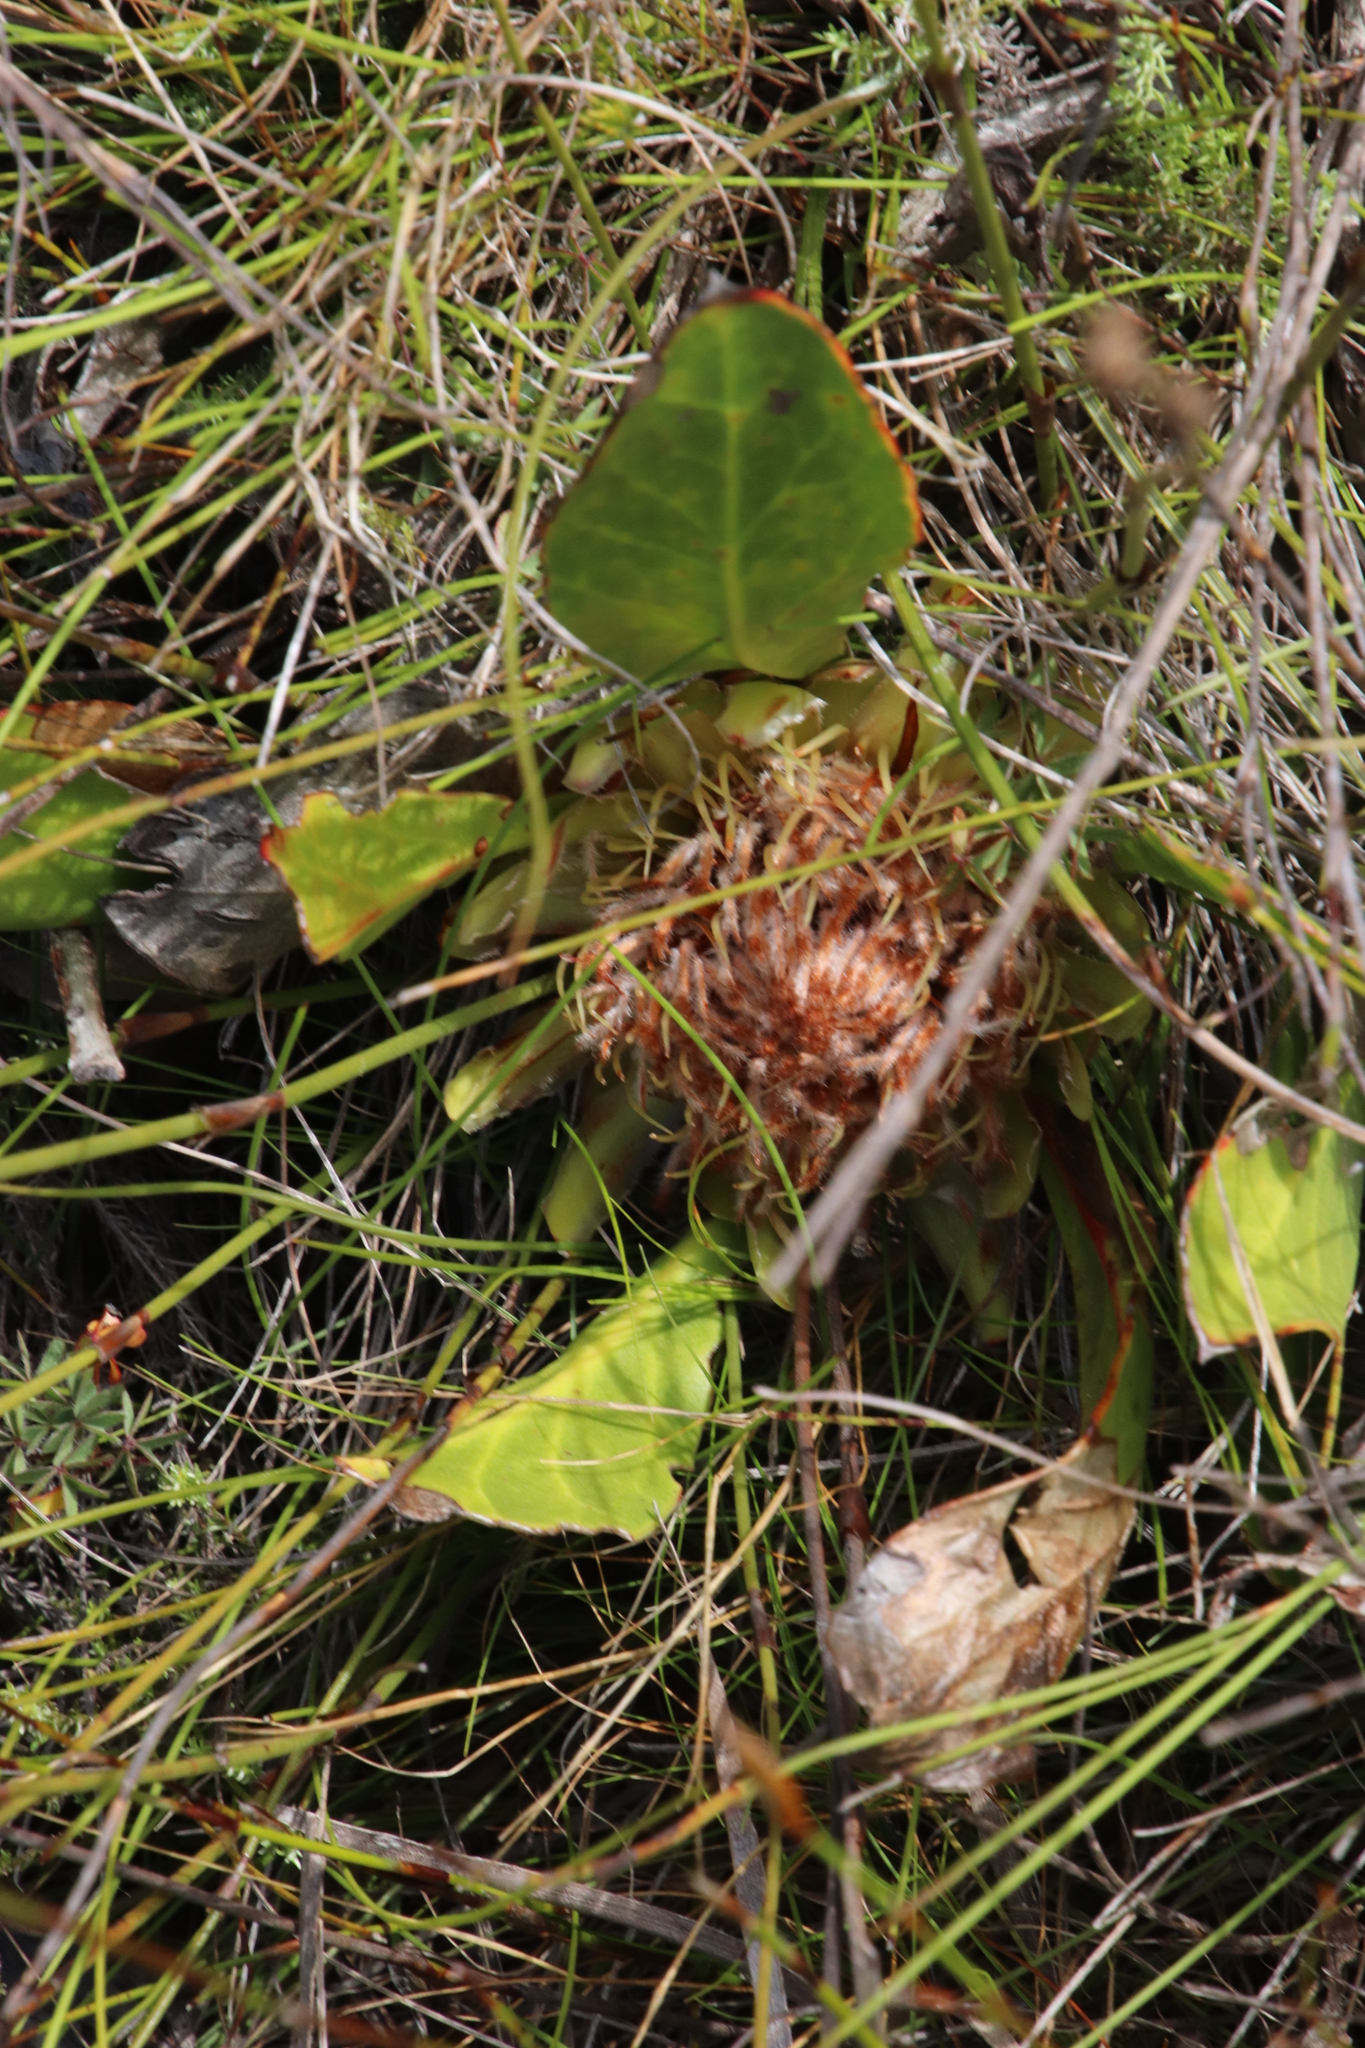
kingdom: Plantae
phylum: Tracheophyta
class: Magnoliopsida
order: Proteales
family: Proteaceae
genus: Protea
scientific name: Protea acaulos
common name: Common ground sugarbush
